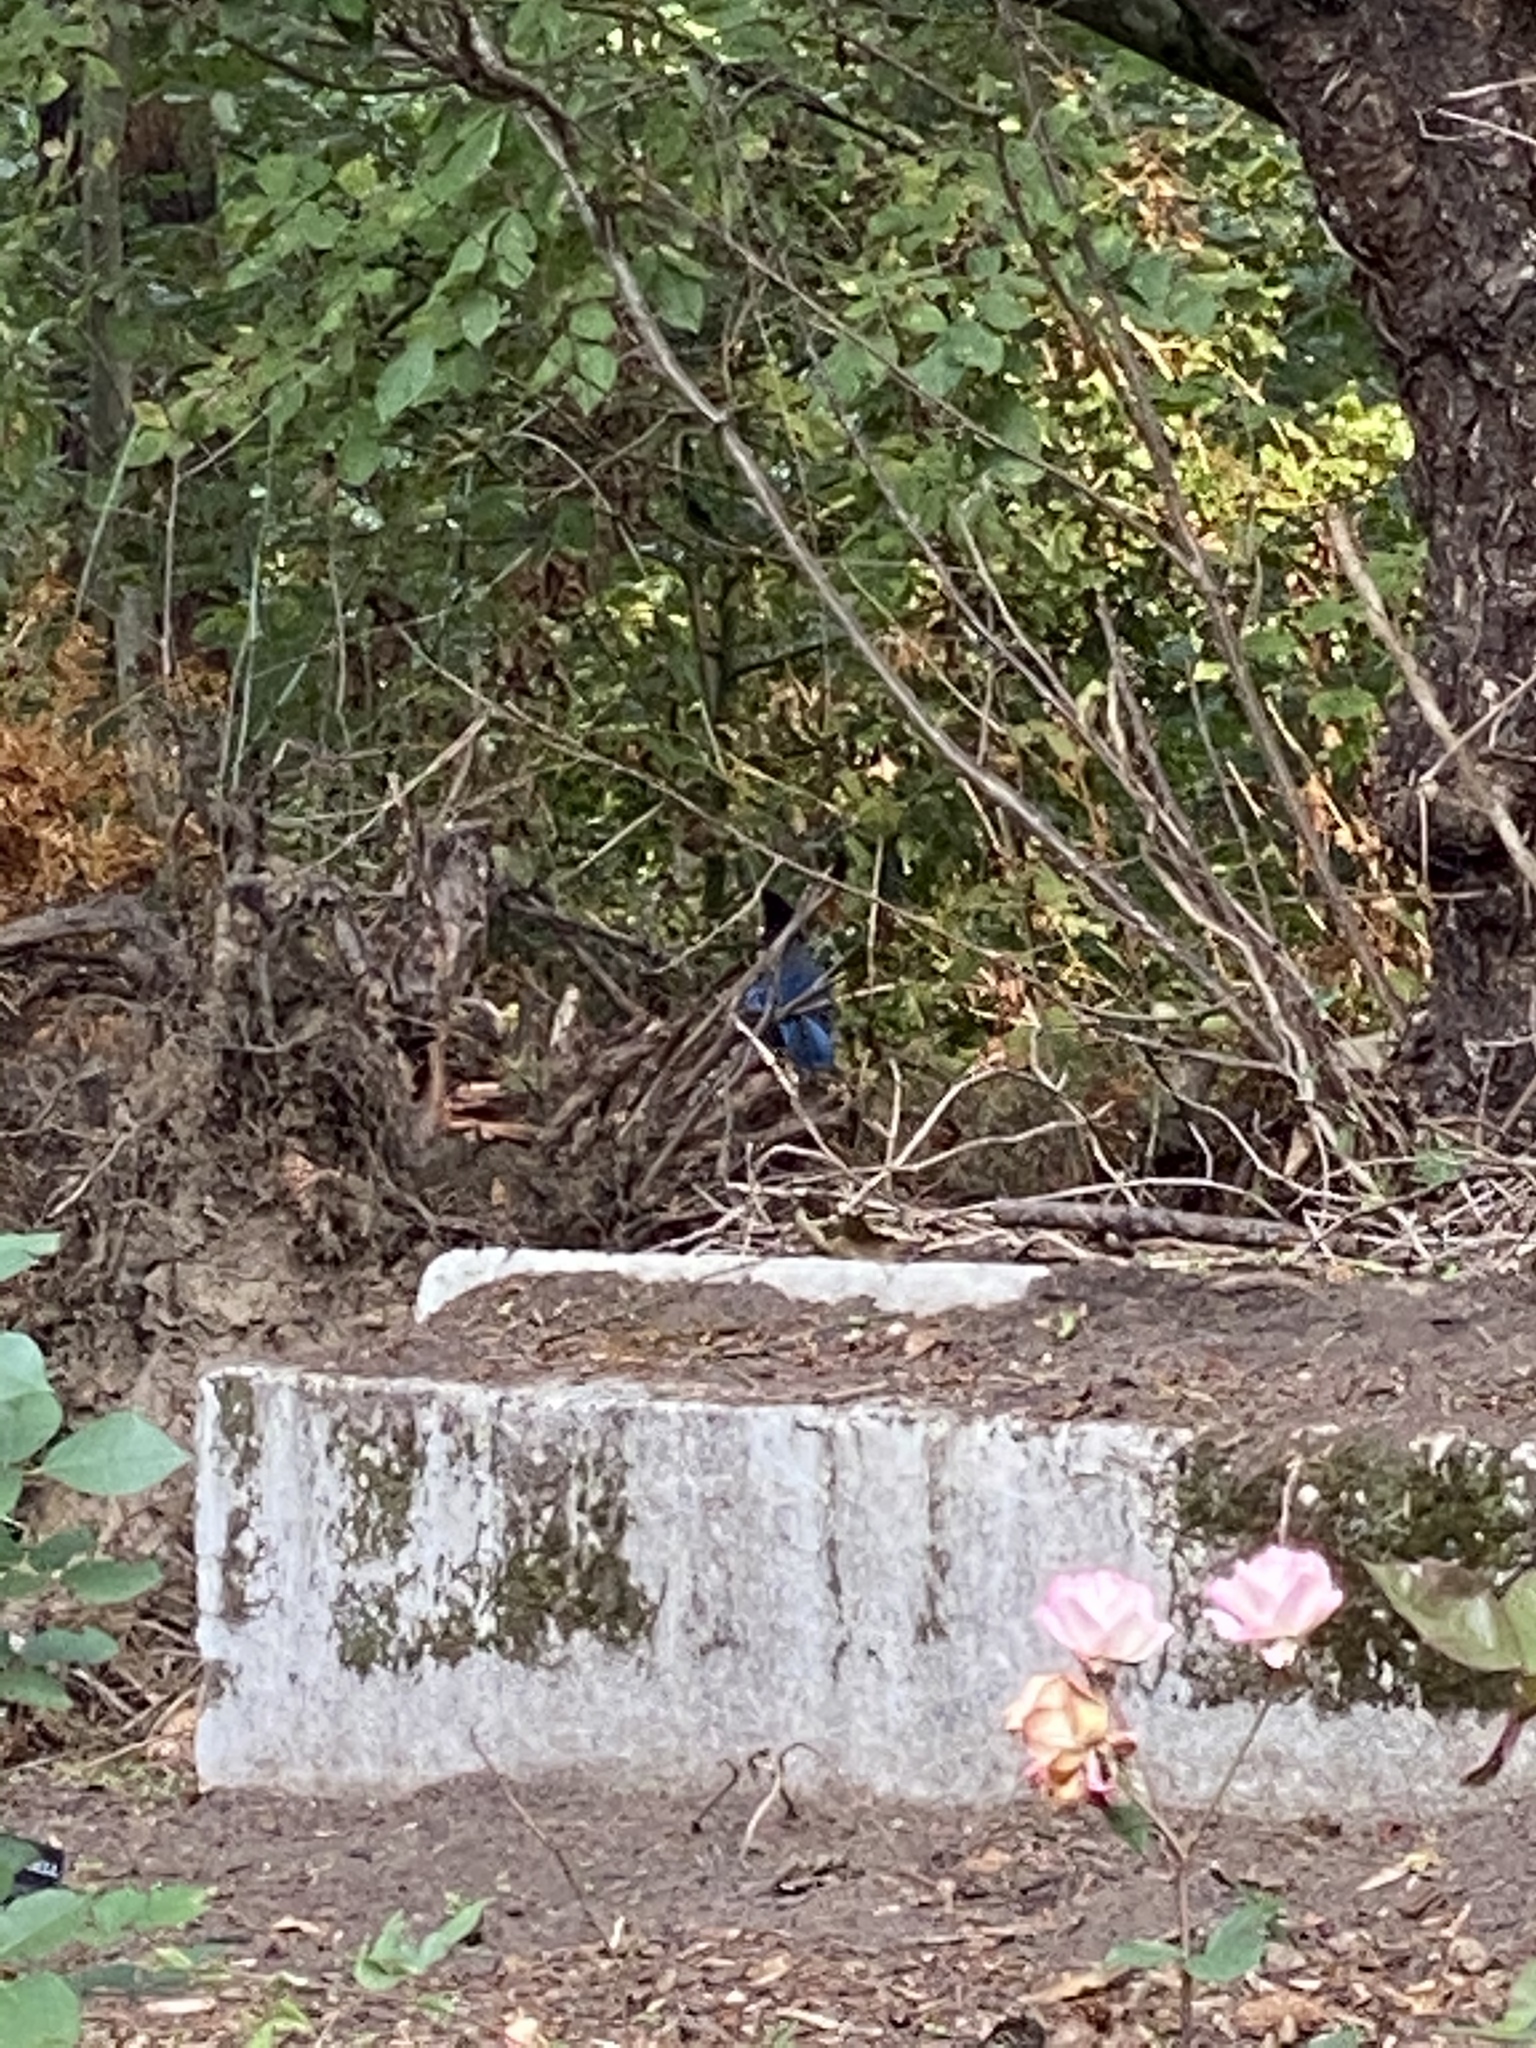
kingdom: Animalia
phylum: Chordata
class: Aves
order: Passeriformes
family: Corvidae
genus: Cyanocitta
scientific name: Cyanocitta stelleri
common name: Steller's jay
